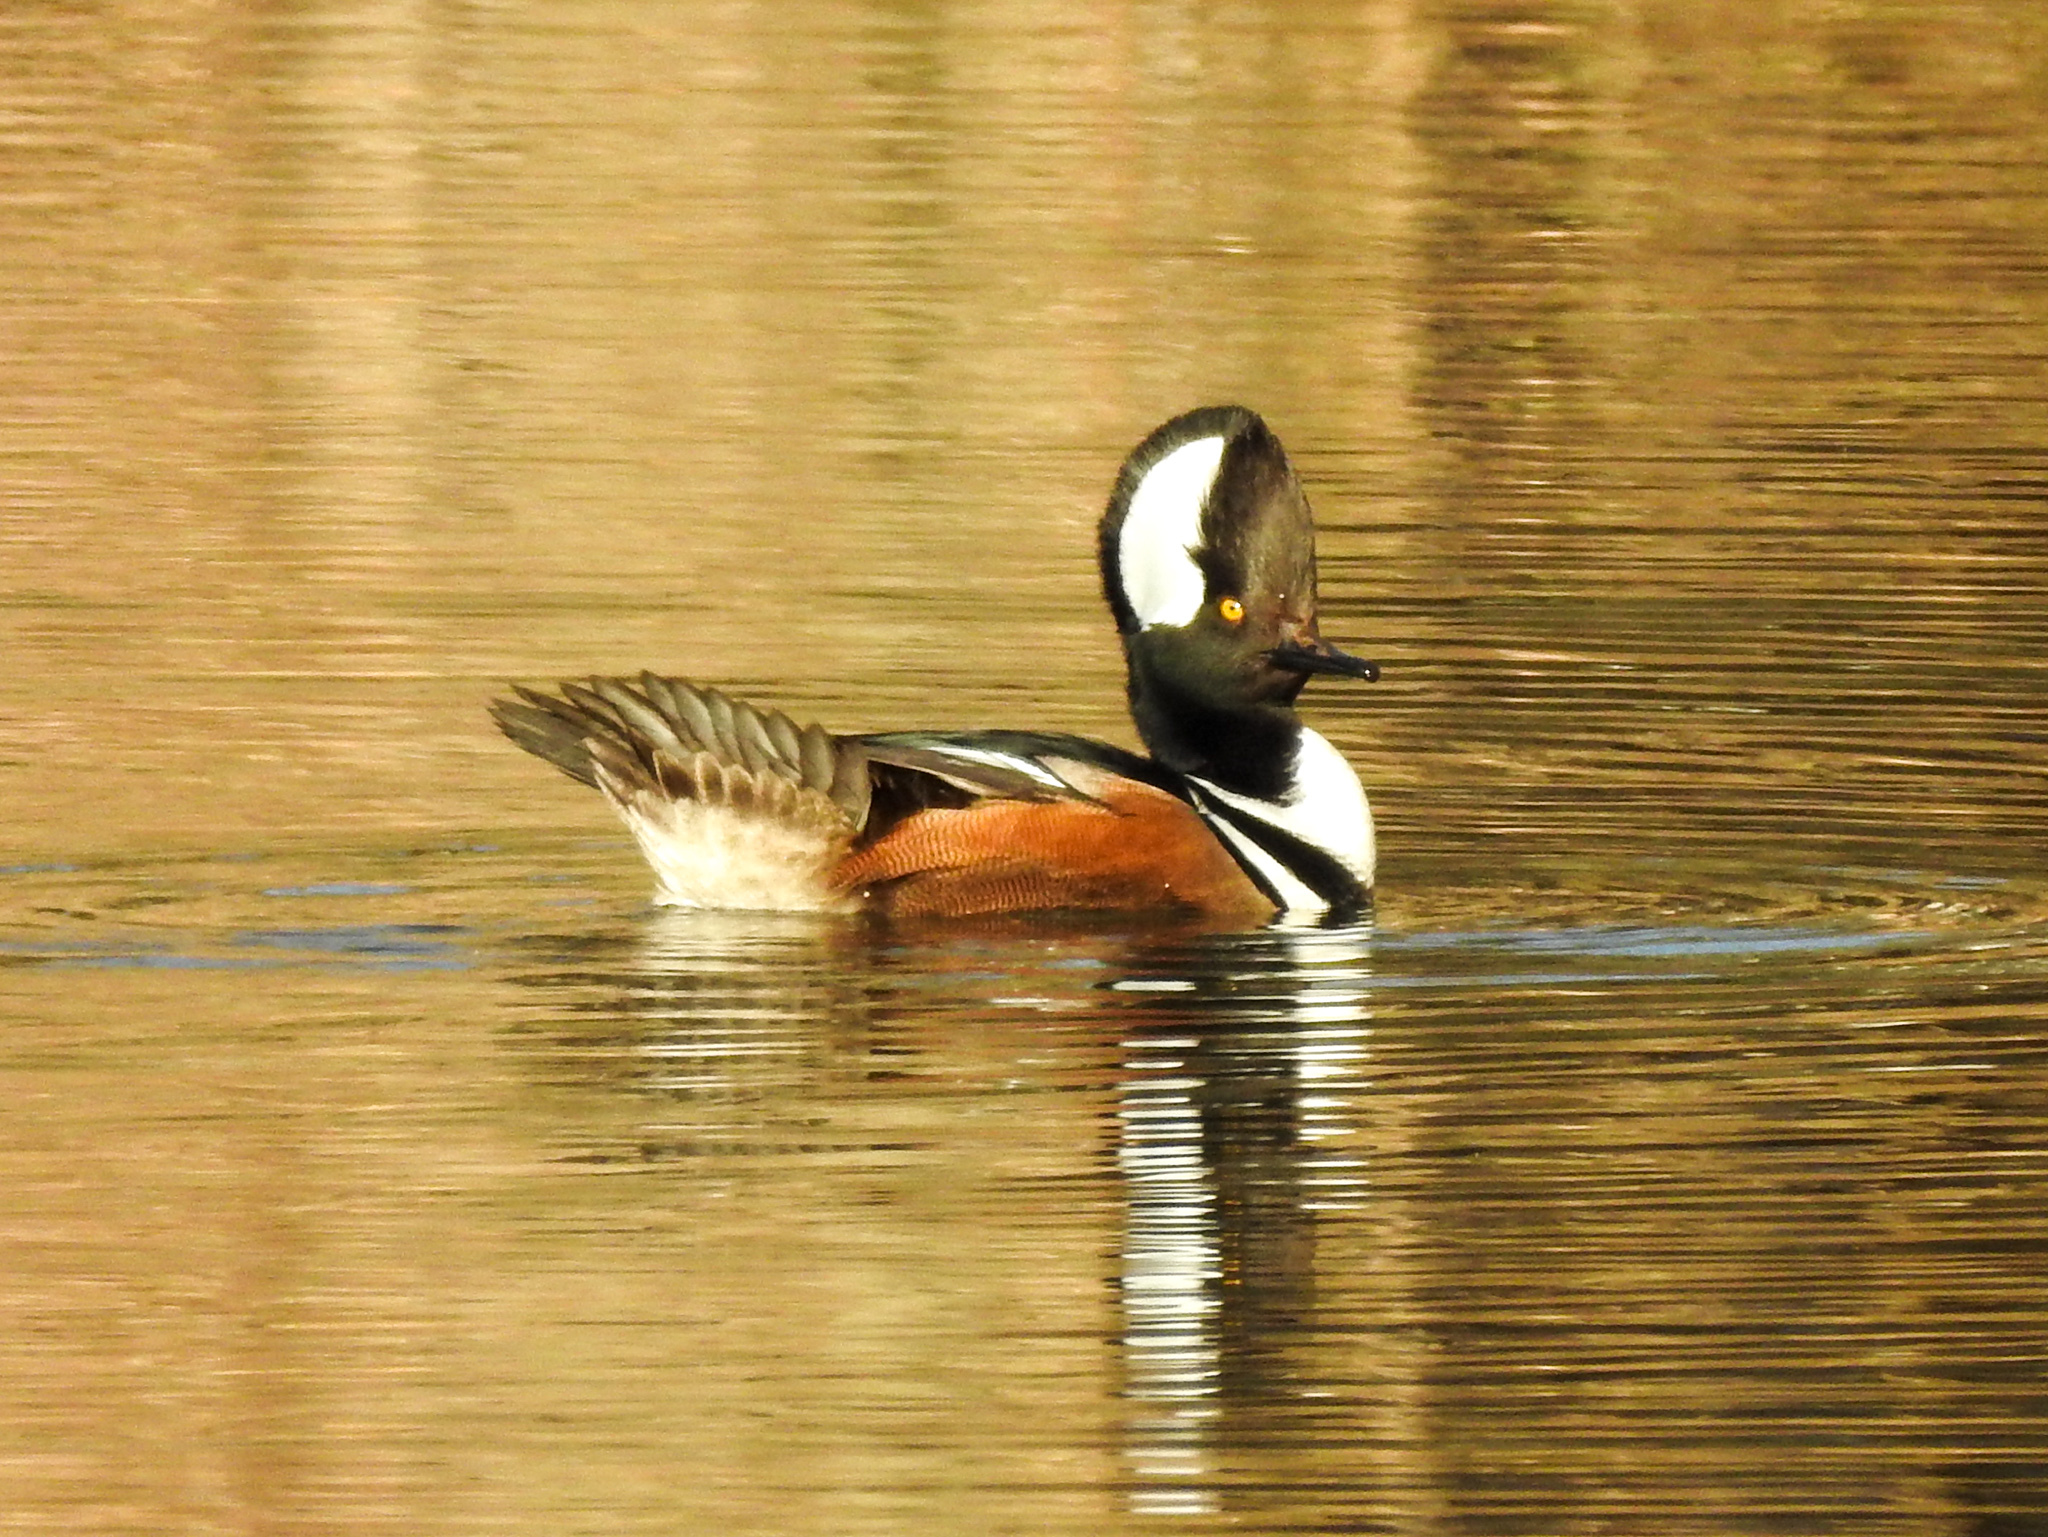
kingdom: Animalia
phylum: Chordata
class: Aves
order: Anseriformes
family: Anatidae
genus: Lophodytes
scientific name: Lophodytes cucullatus
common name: Hooded merganser
